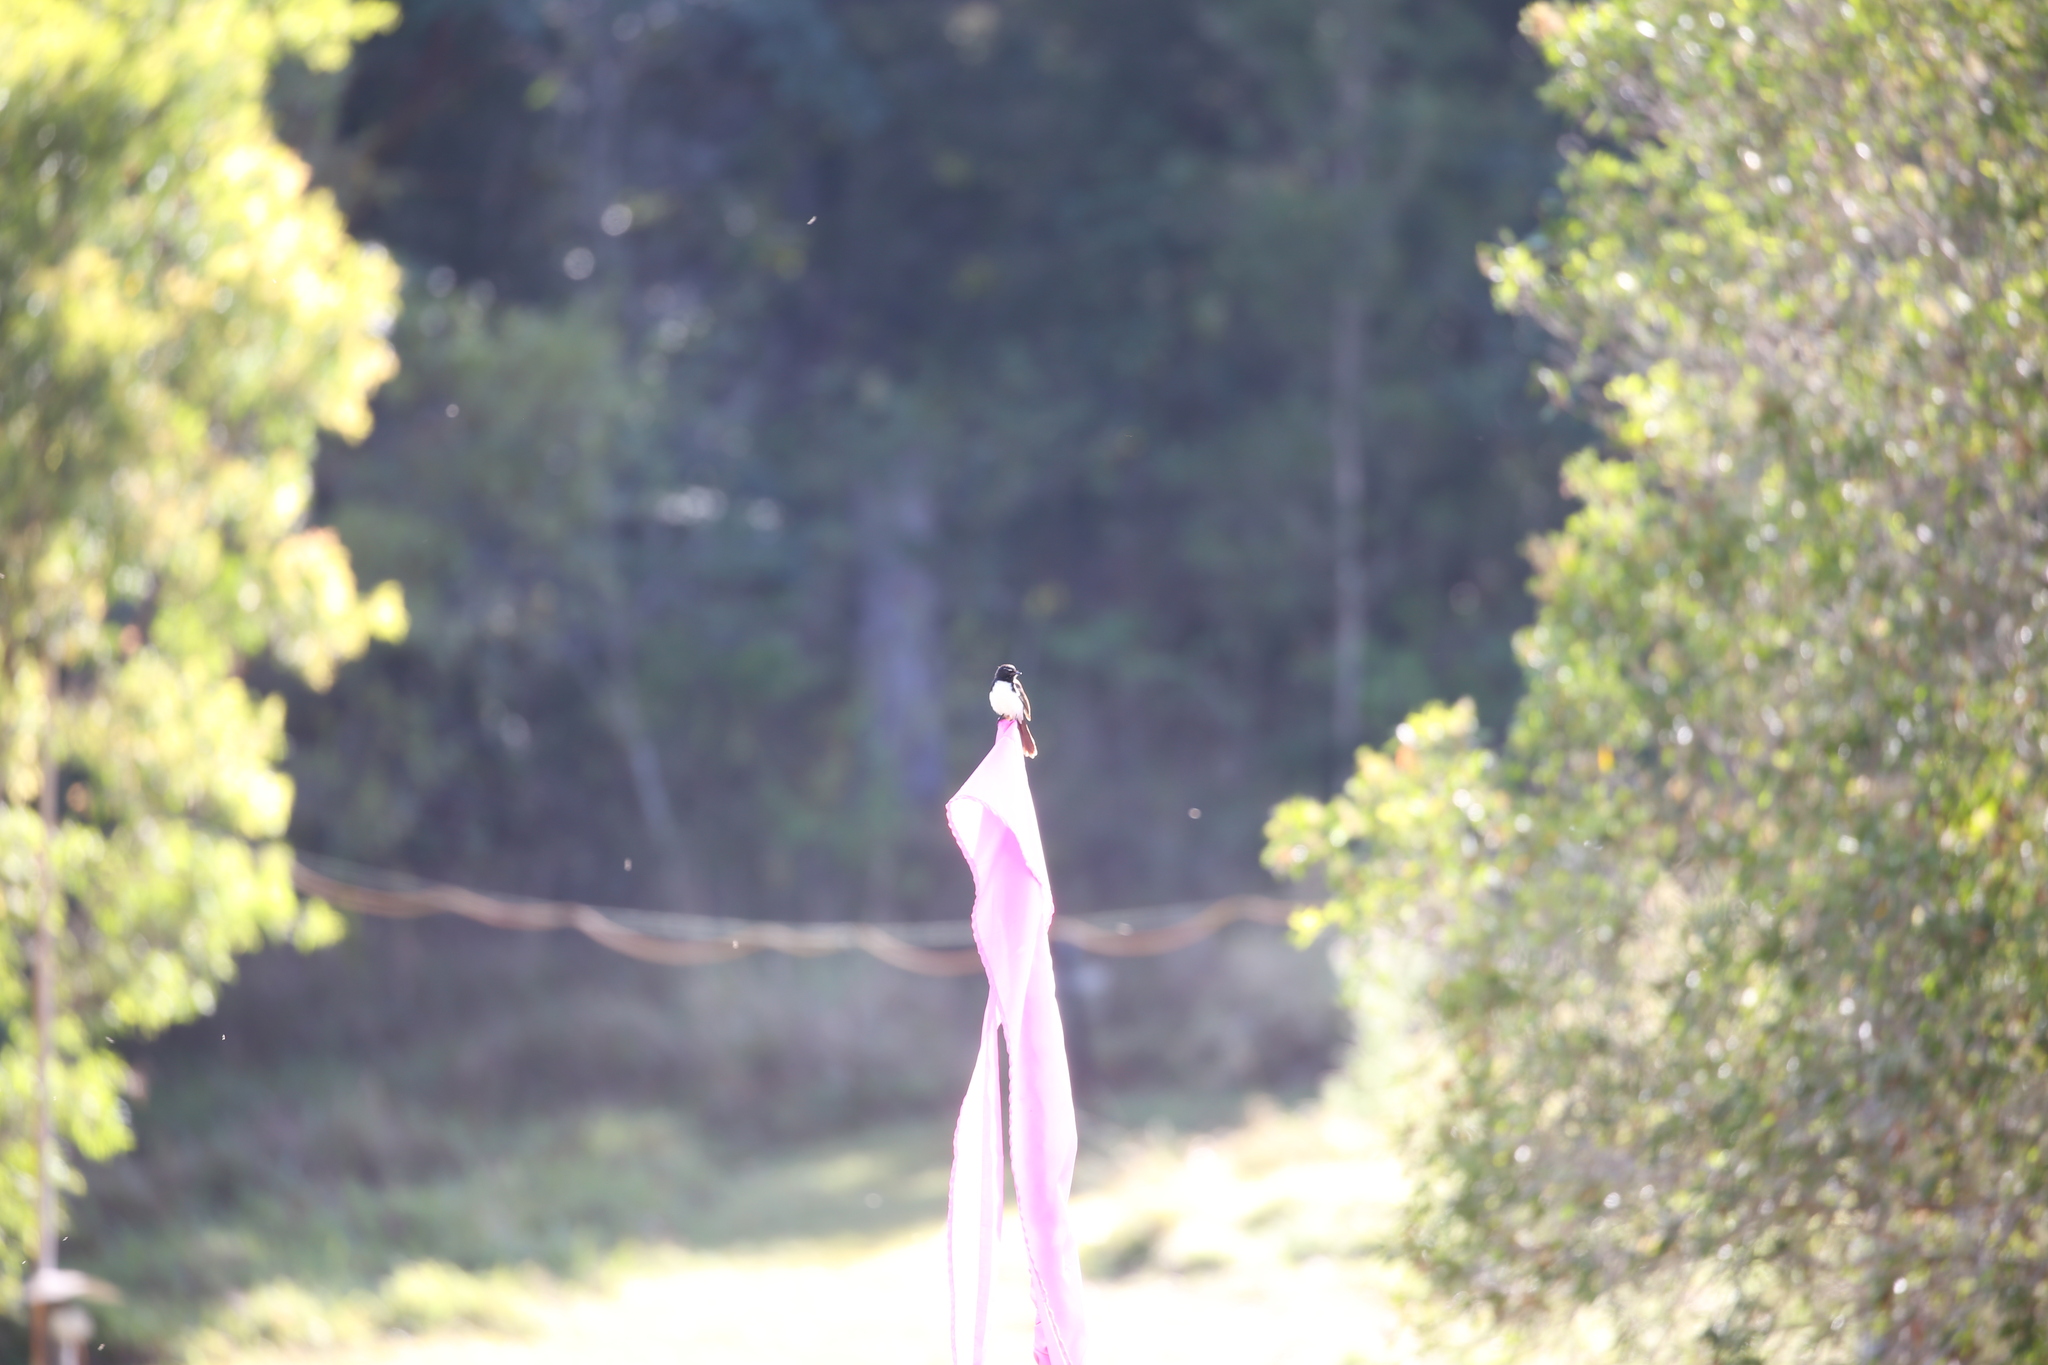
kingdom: Animalia
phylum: Chordata
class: Aves
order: Passeriformes
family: Rhipiduridae
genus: Rhipidura
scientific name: Rhipidura leucophrys
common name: Willie wagtail
